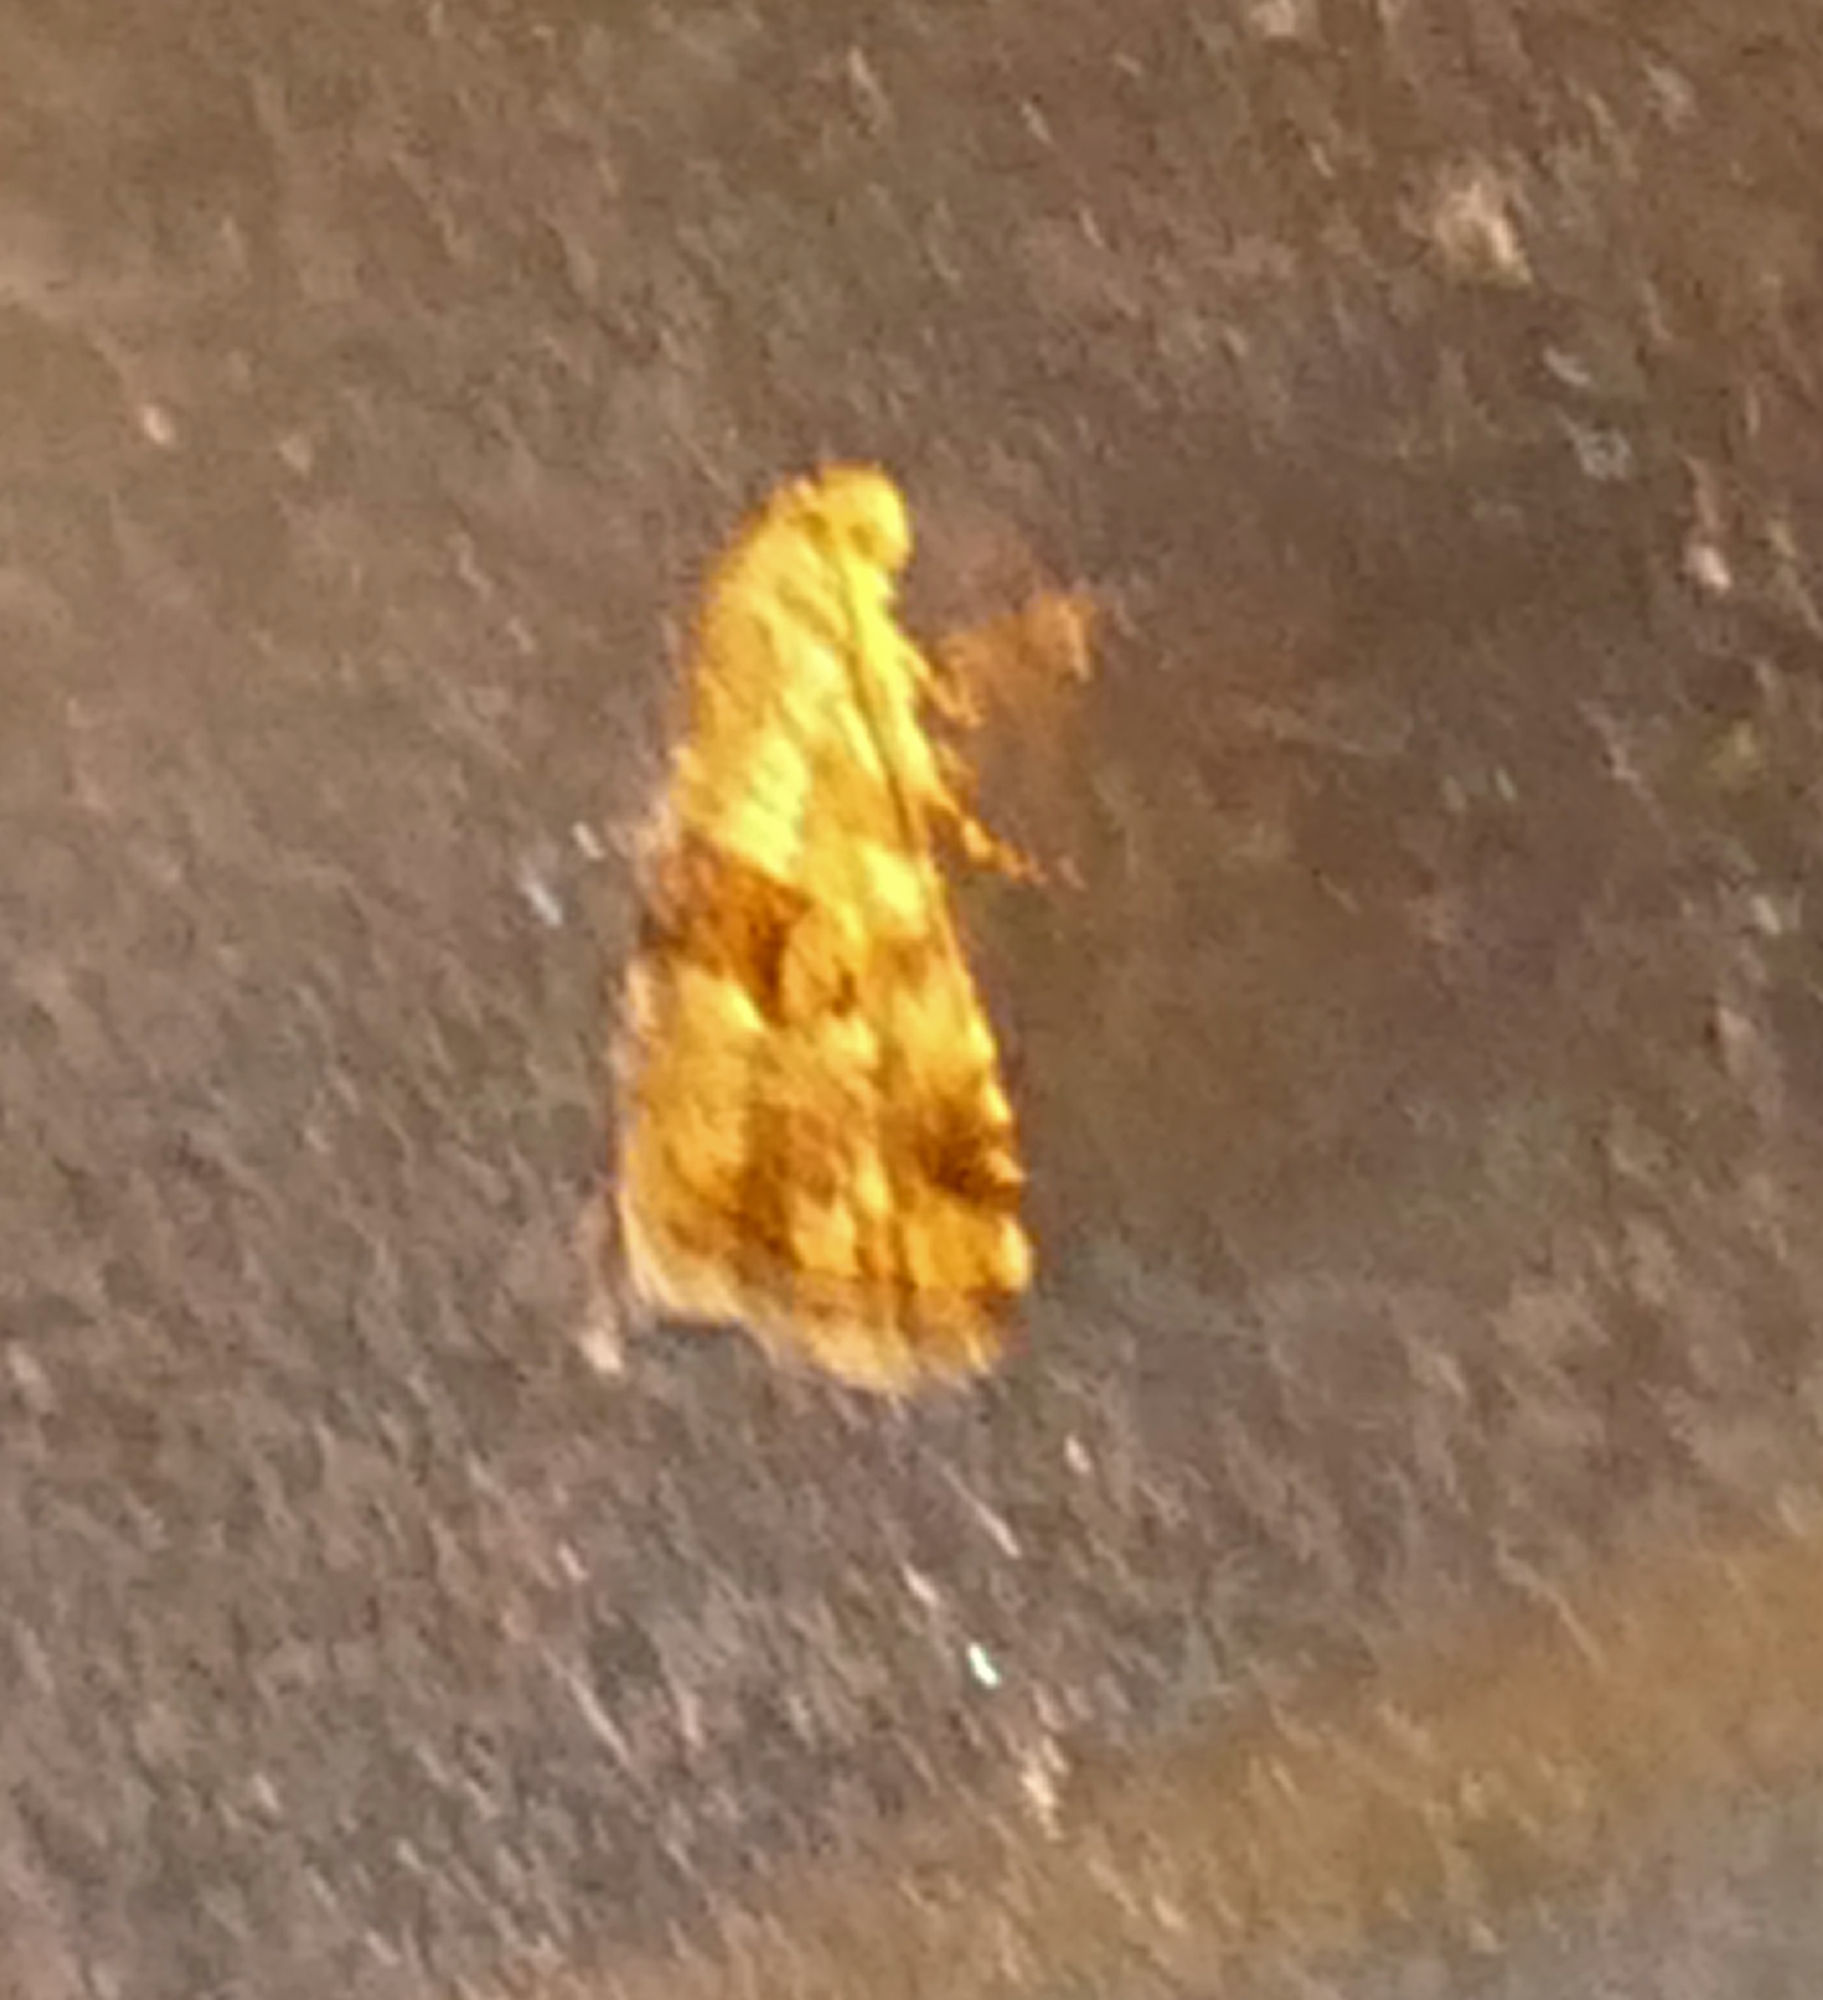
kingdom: Animalia
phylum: Arthropoda
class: Insecta
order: Lepidoptera
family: Noctuidae
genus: Tripudia
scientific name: Tripudia quadrifera
